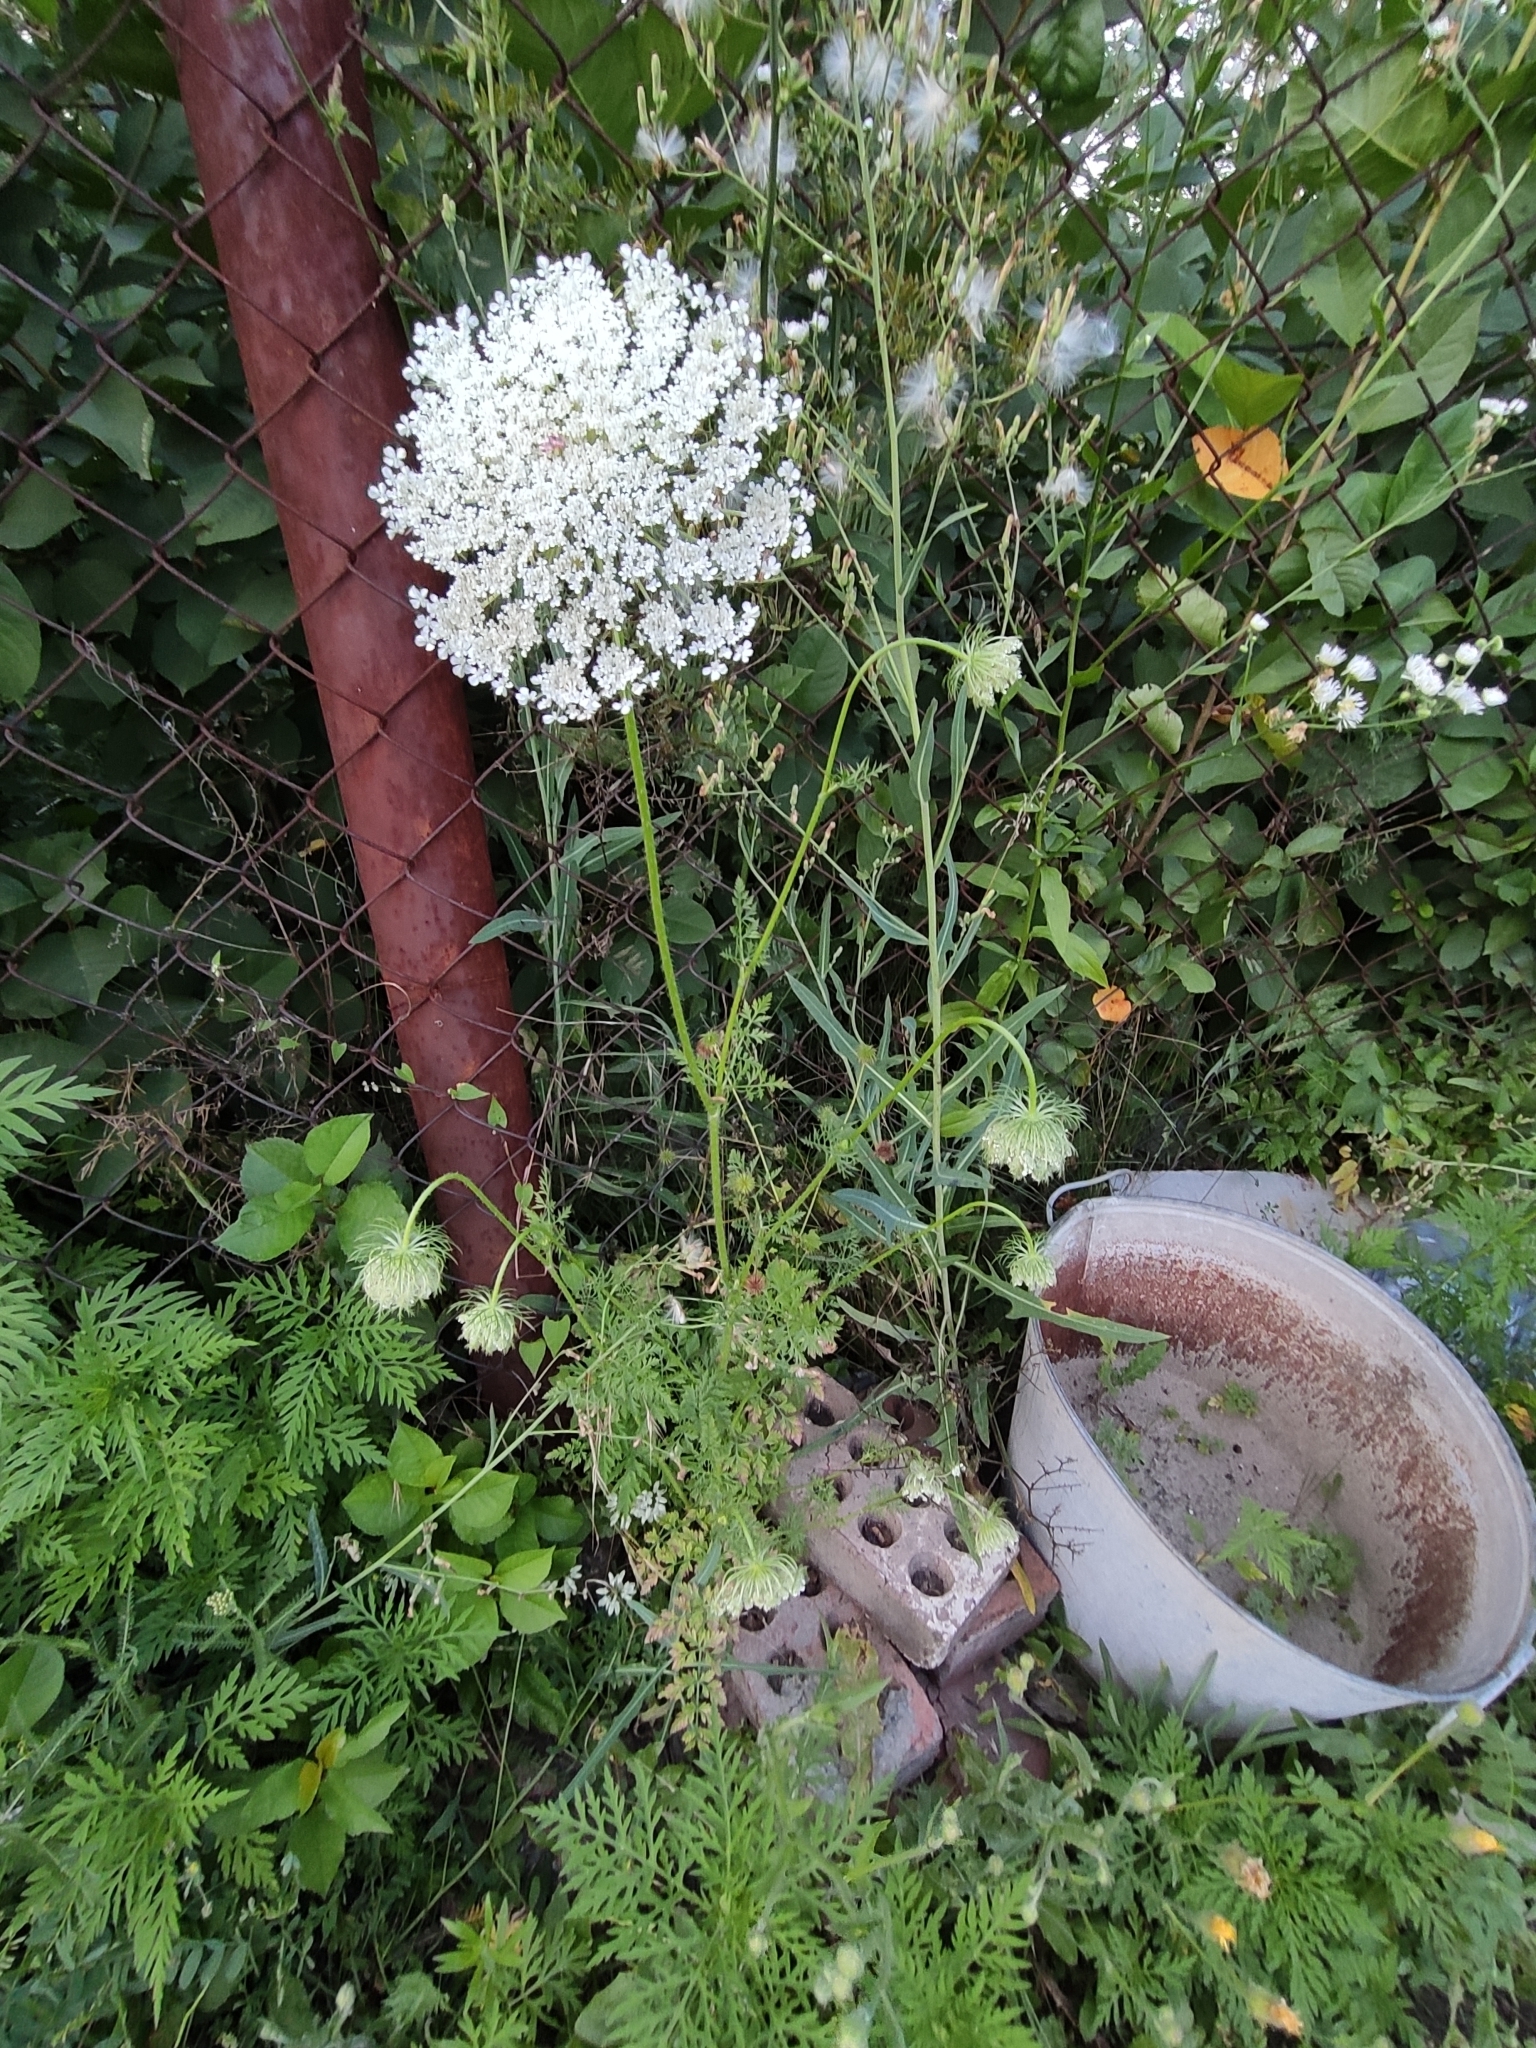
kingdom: Plantae
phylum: Tracheophyta
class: Magnoliopsida
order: Apiales
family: Apiaceae
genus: Daucus
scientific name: Daucus carota
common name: Wild carrot
